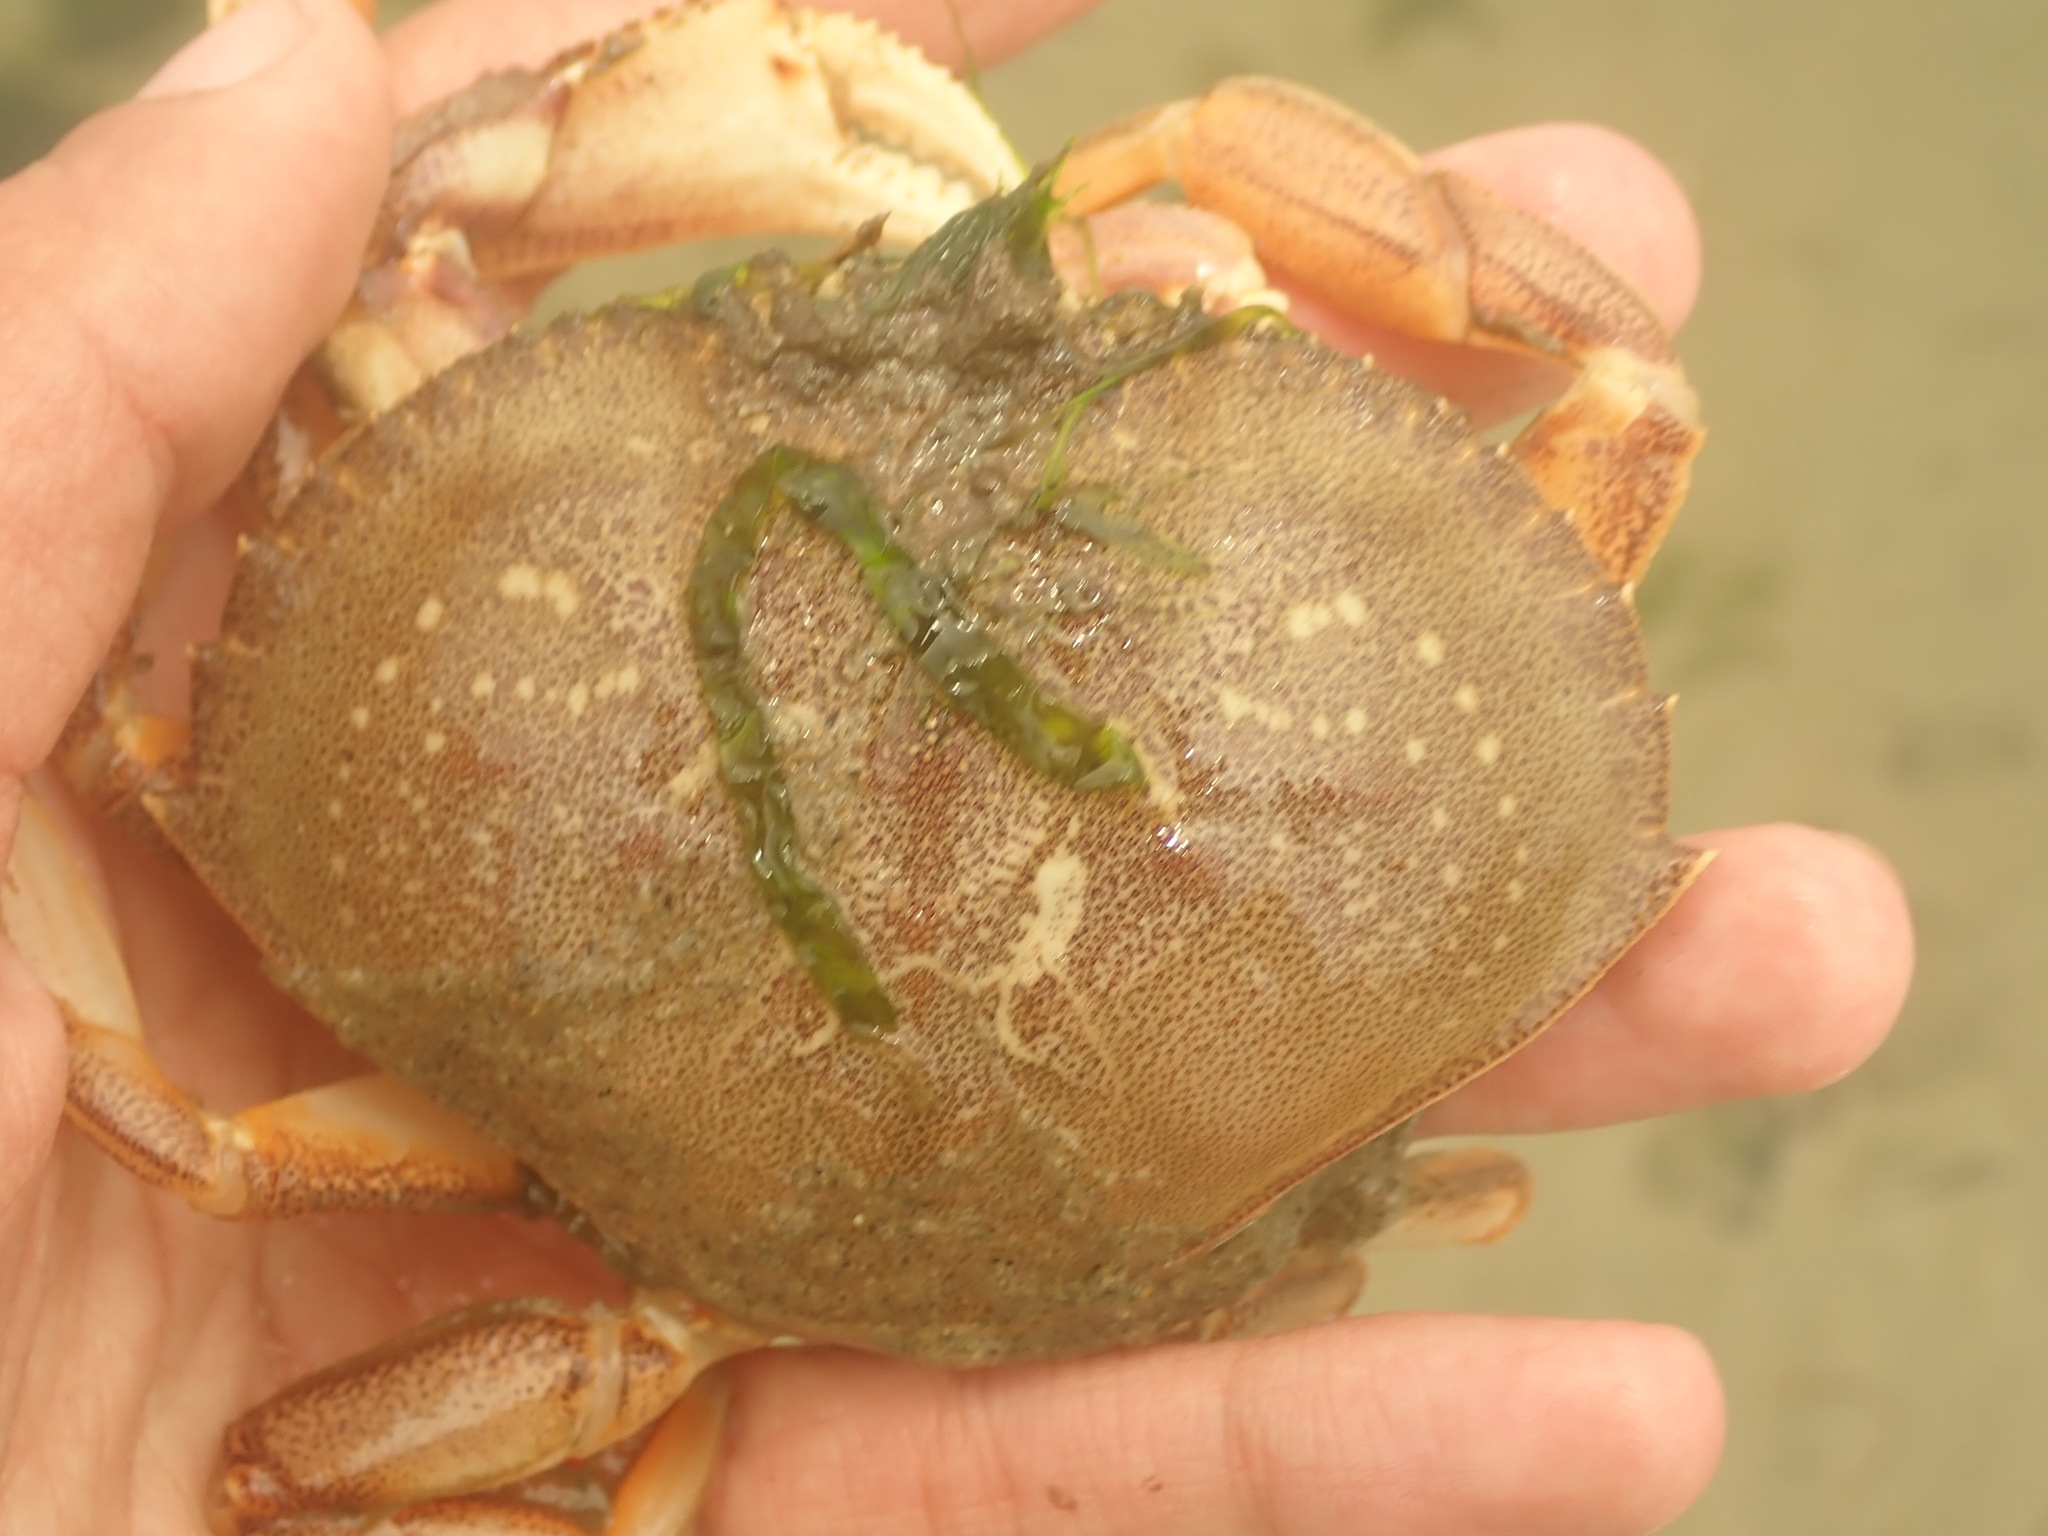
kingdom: Animalia
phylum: Arthropoda
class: Malacostraca
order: Decapoda
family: Cancridae
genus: Metacarcinus
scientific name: Metacarcinus magister
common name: Californian crab
